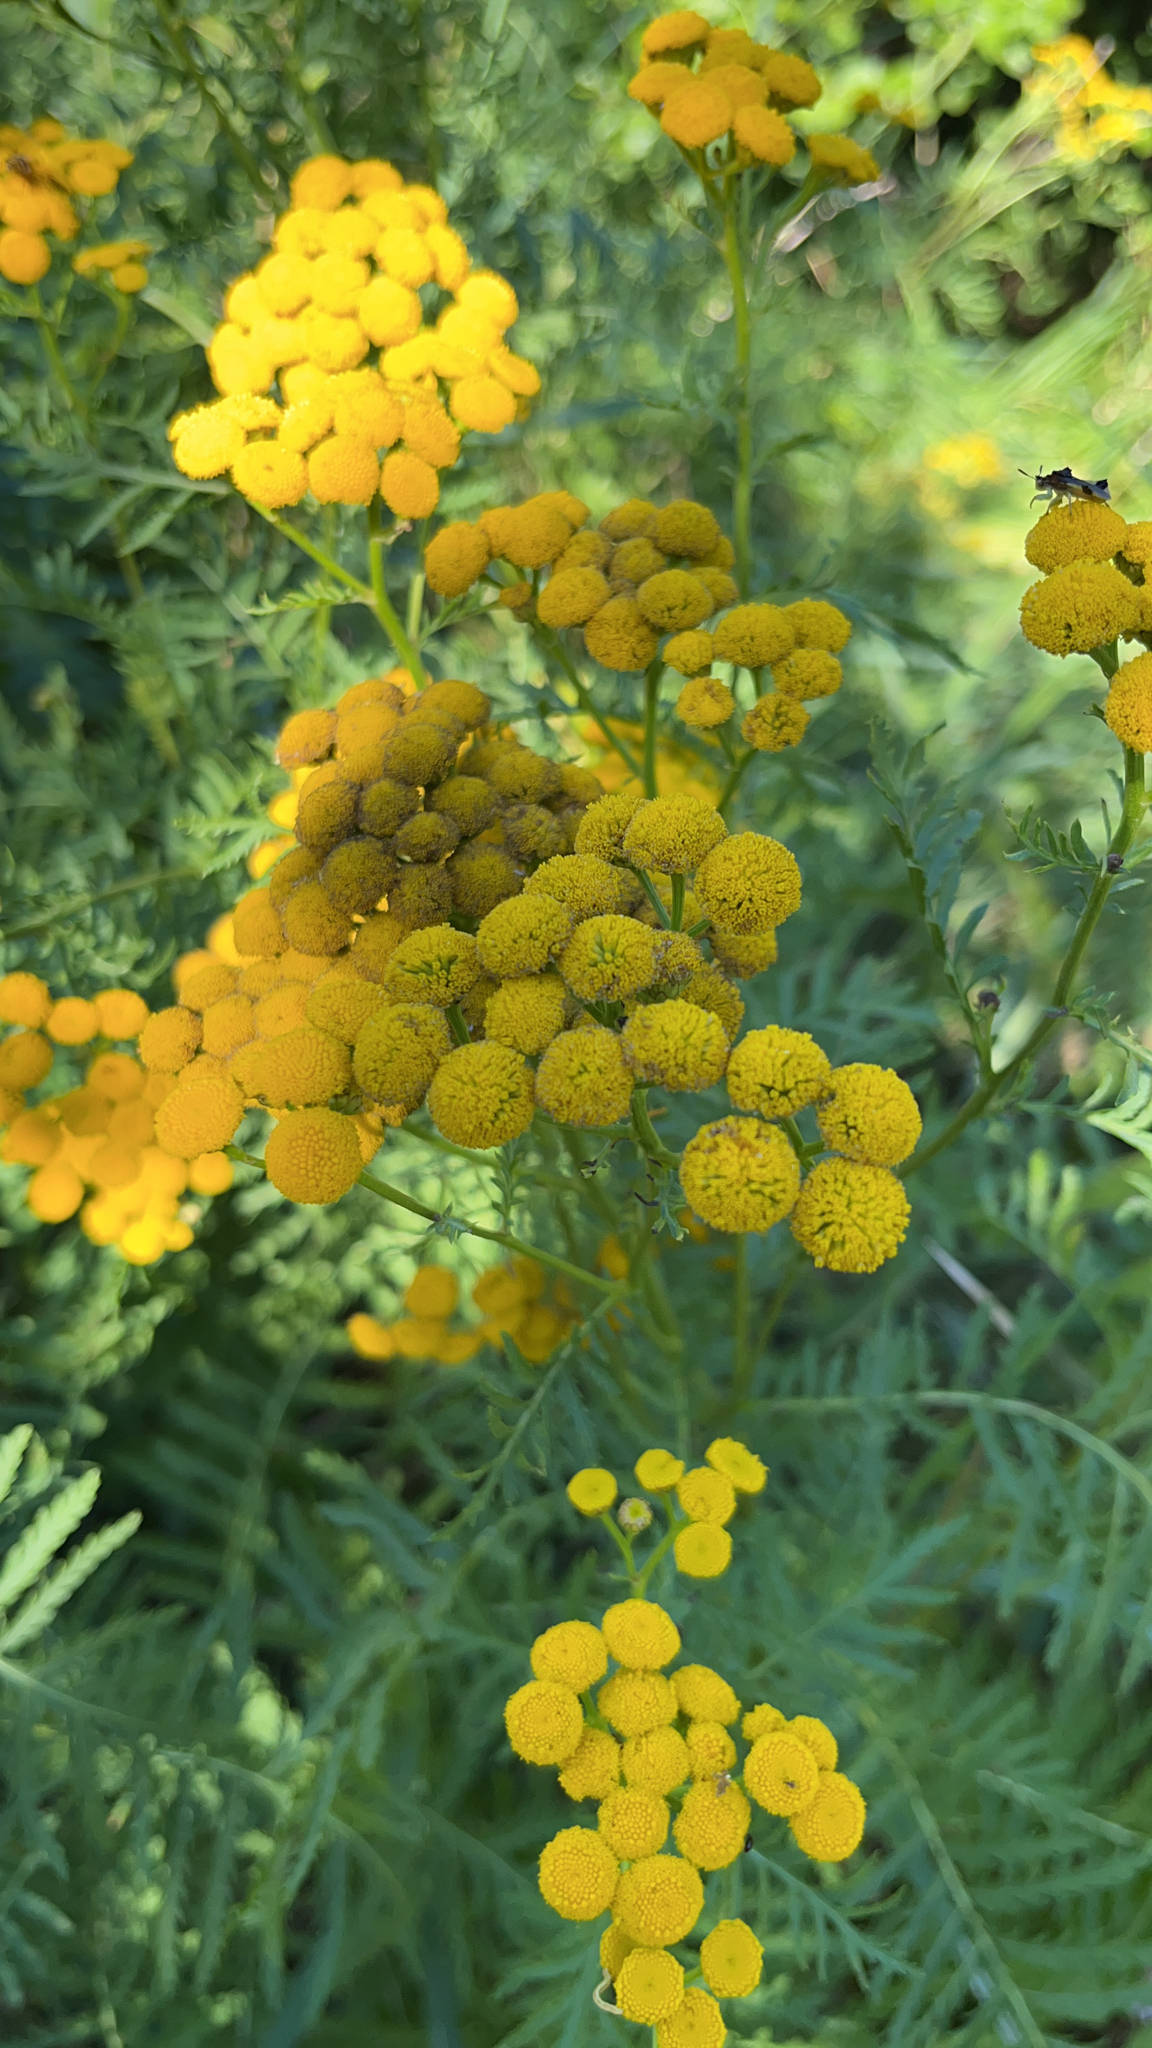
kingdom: Plantae
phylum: Tracheophyta
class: Magnoliopsida
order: Asterales
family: Asteraceae
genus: Tanacetum
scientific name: Tanacetum vulgare
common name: Common tansy
